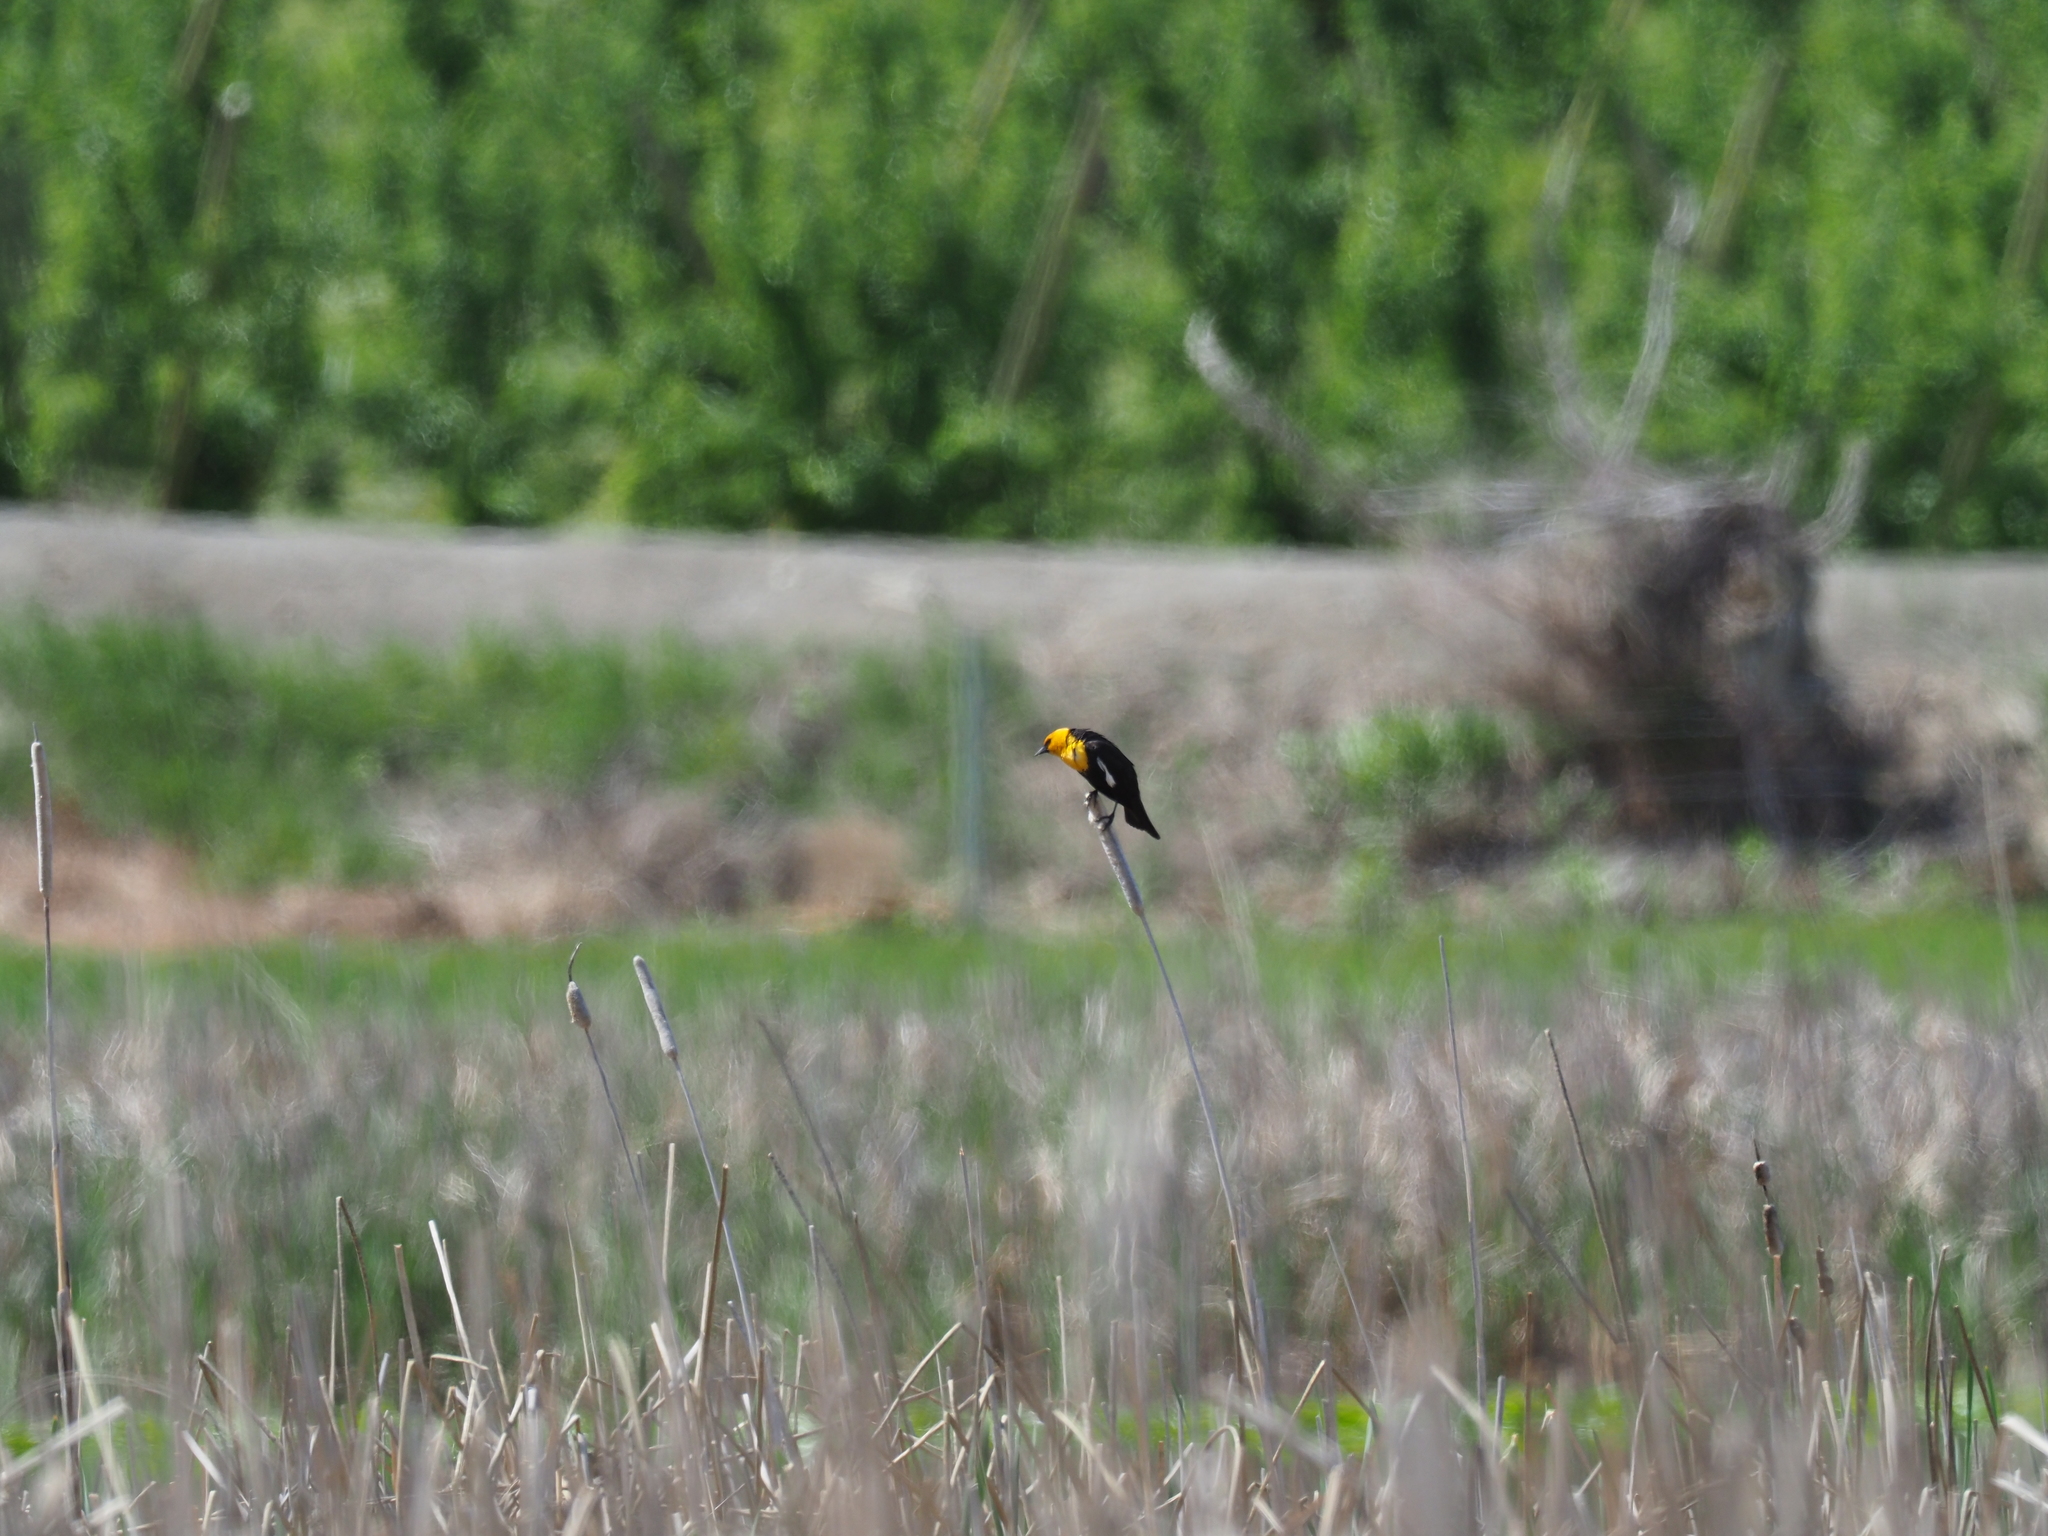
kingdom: Animalia
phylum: Chordata
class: Aves
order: Passeriformes
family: Icteridae
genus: Xanthocephalus
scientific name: Xanthocephalus xanthocephalus
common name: Yellow-headed blackbird
